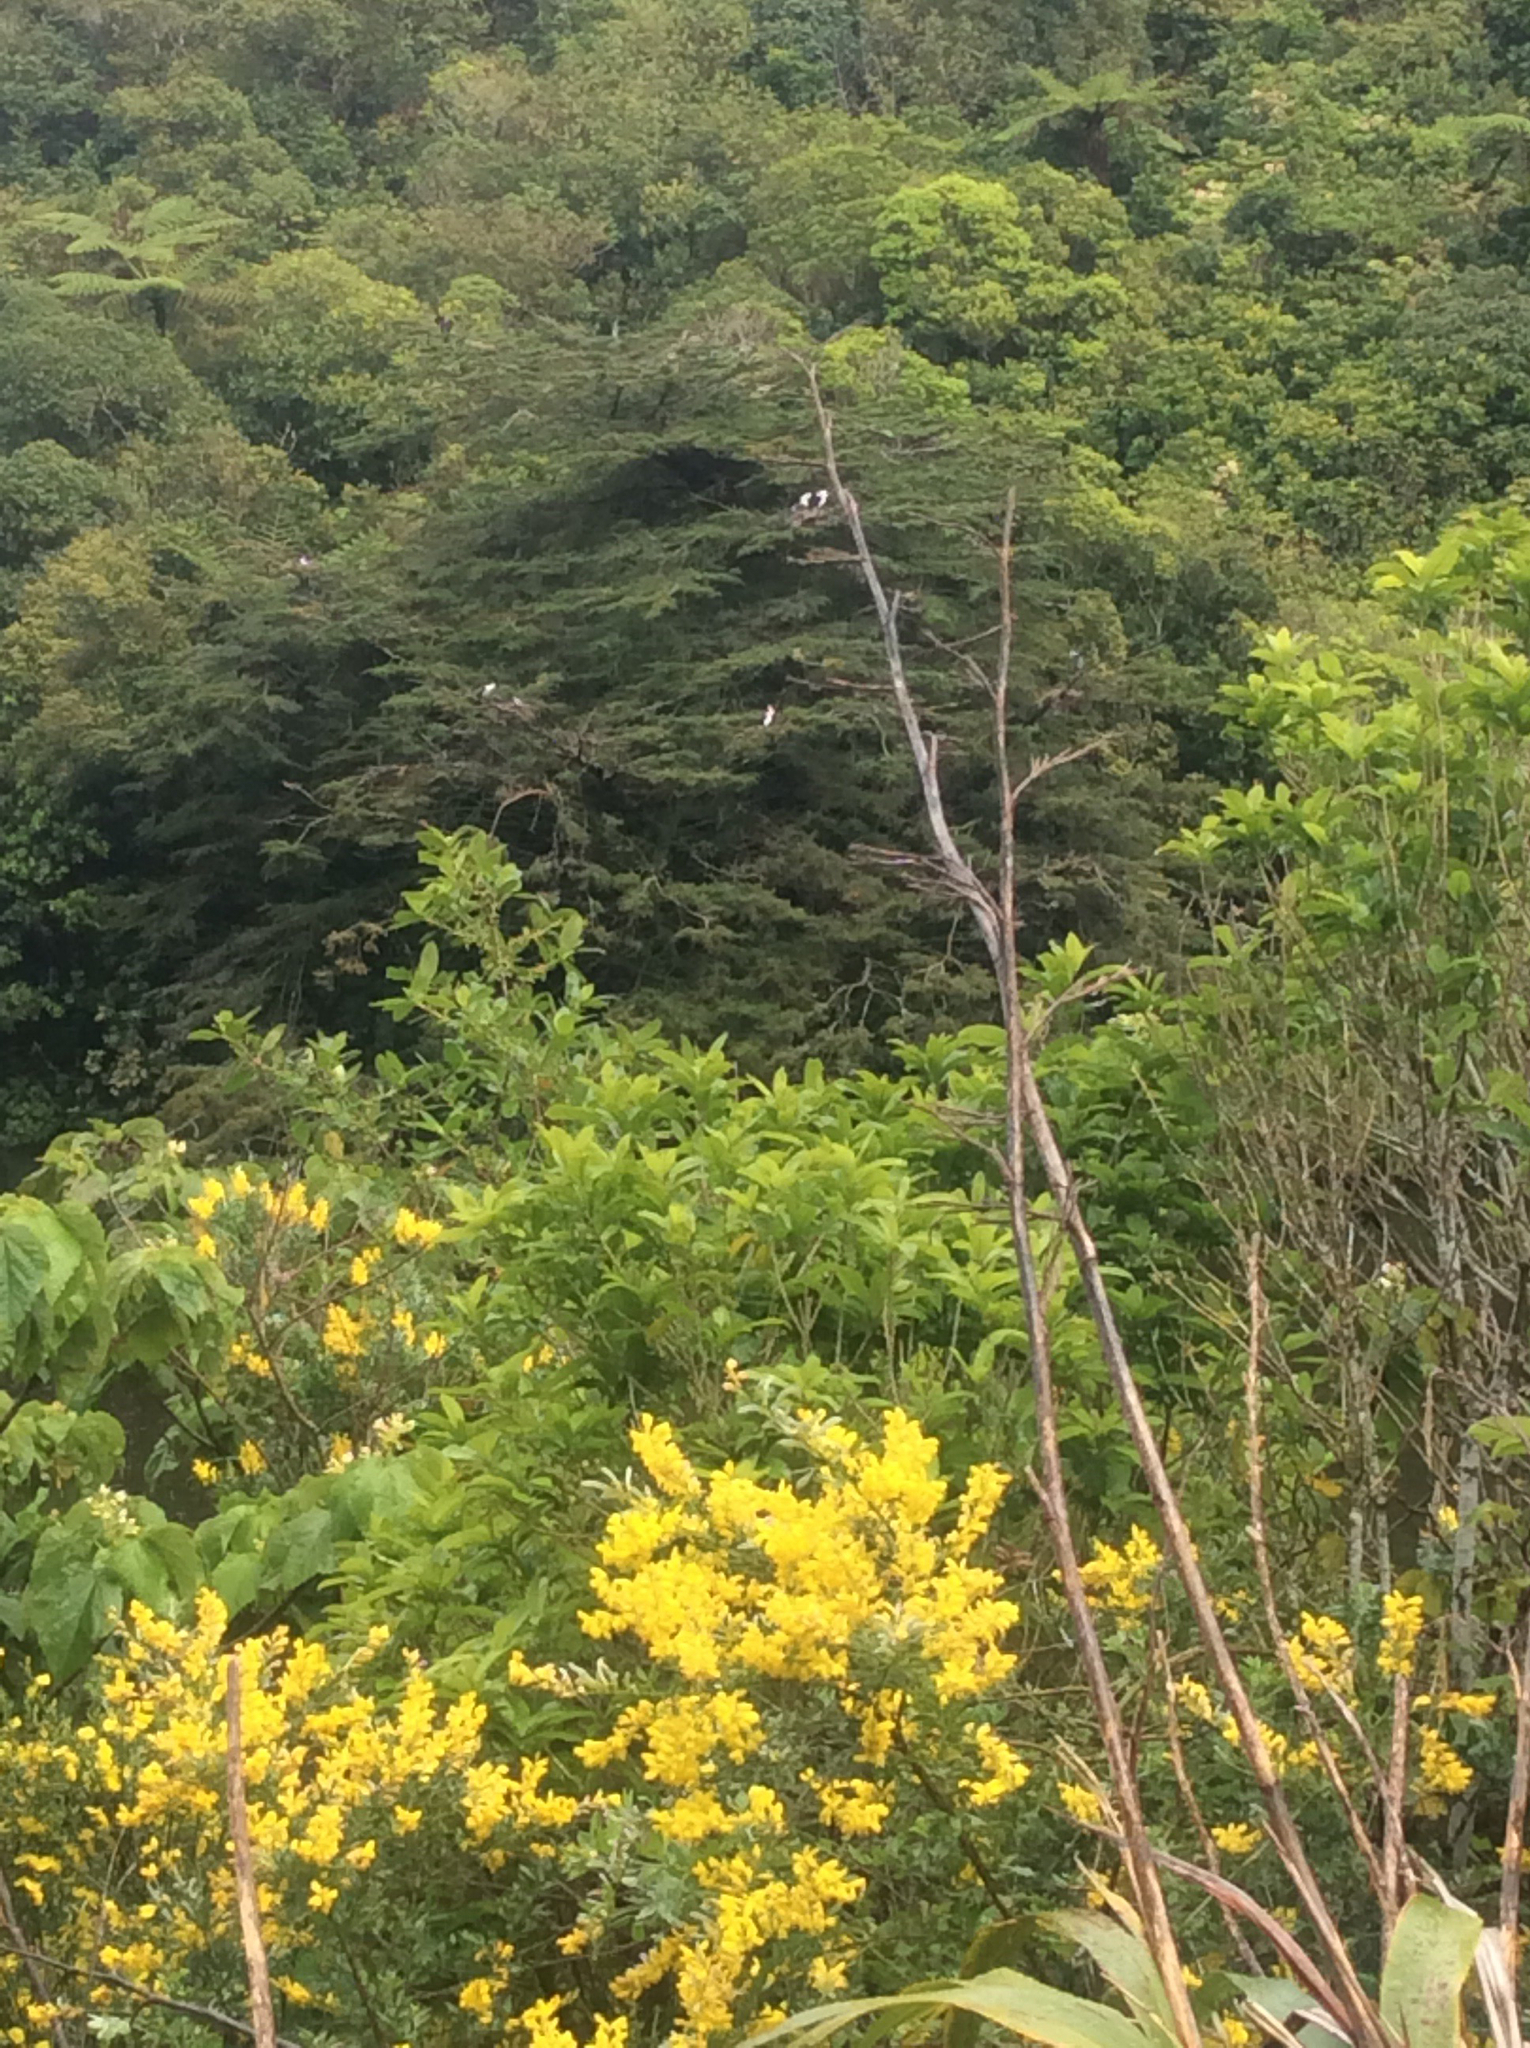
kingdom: Animalia
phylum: Chordata
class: Aves
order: Suliformes
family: Phalacrocoracidae
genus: Phalacrocorax
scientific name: Phalacrocorax varius
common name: Pied cormorant
